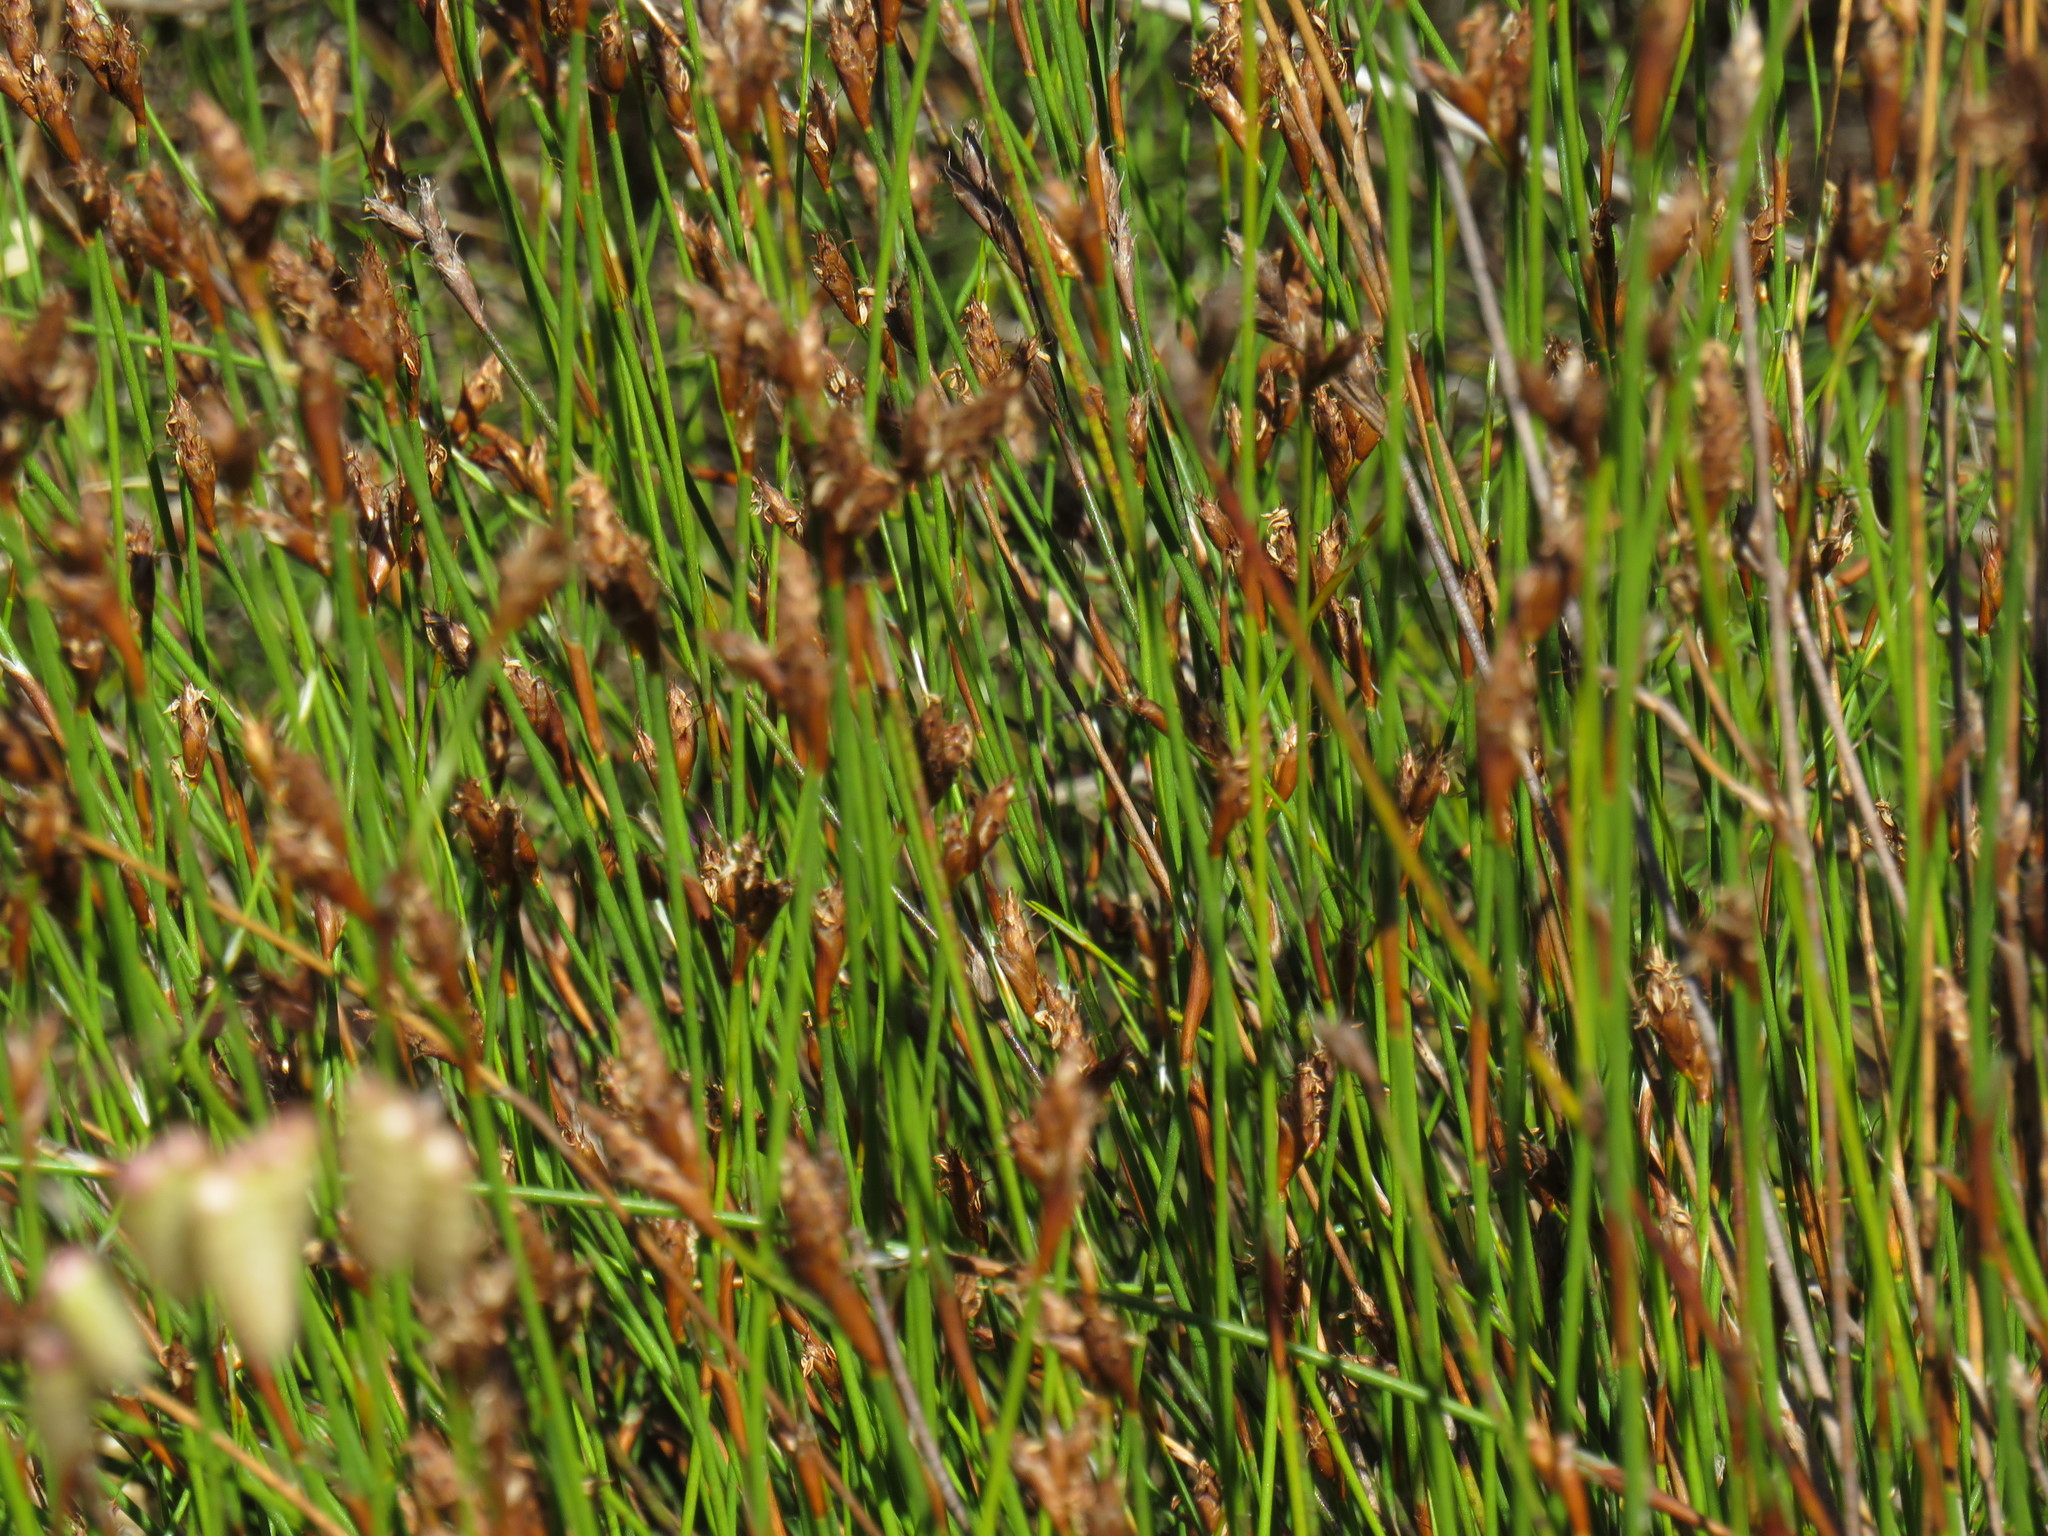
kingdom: Plantae
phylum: Tracheophyta
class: Liliopsida
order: Poales
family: Restionaceae
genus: Restio
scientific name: Restio capensis
